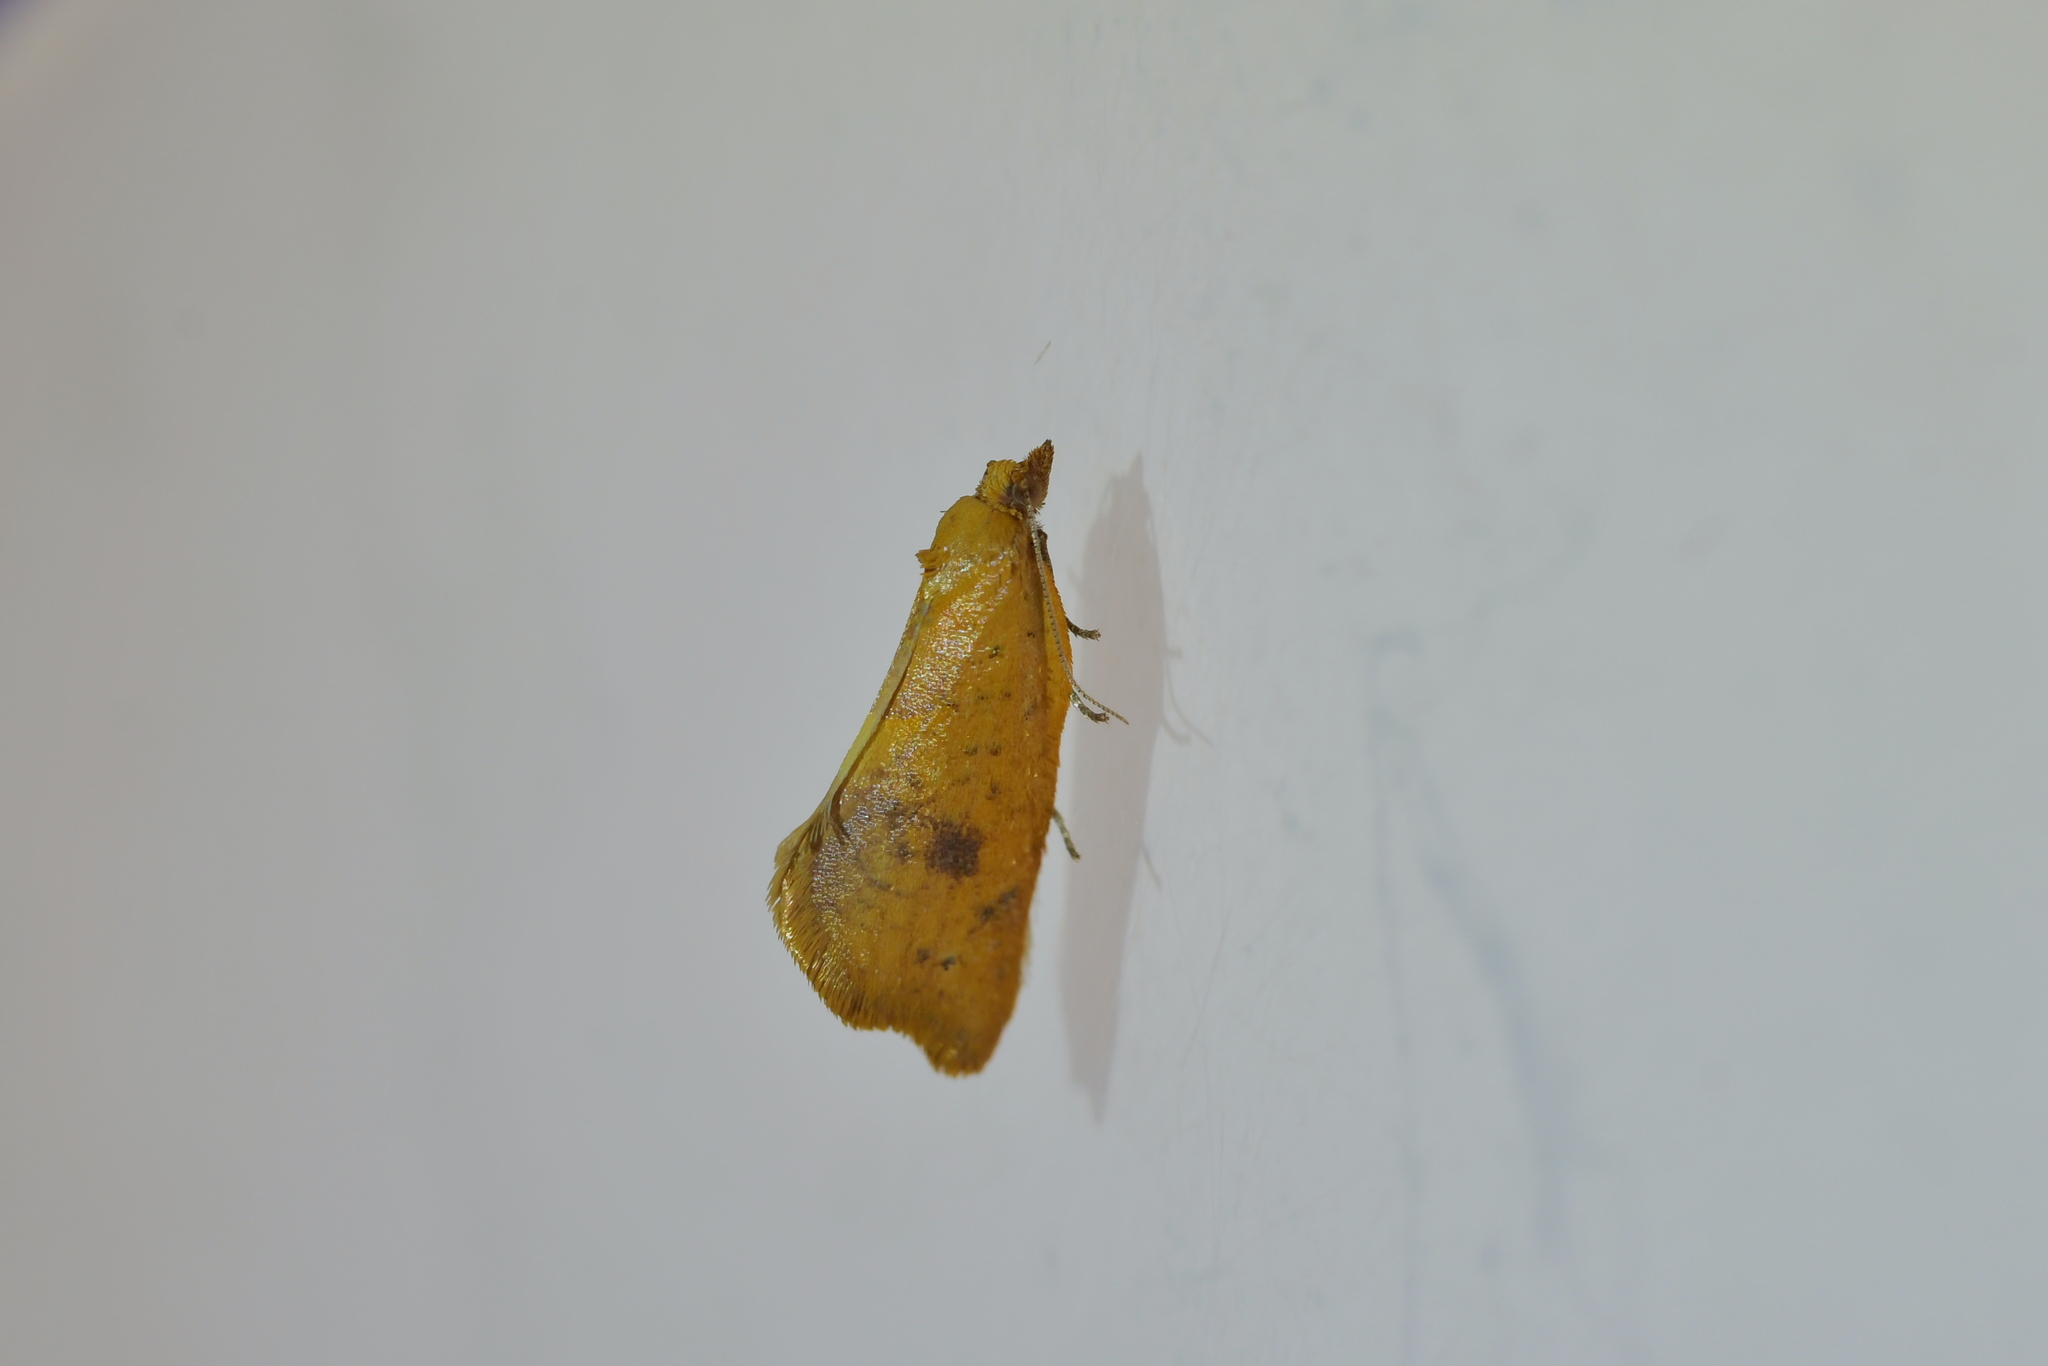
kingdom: Animalia
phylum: Arthropoda
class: Insecta
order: Lepidoptera
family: Tortricidae
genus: Pyrgotis
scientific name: Pyrgotis pyramidias
